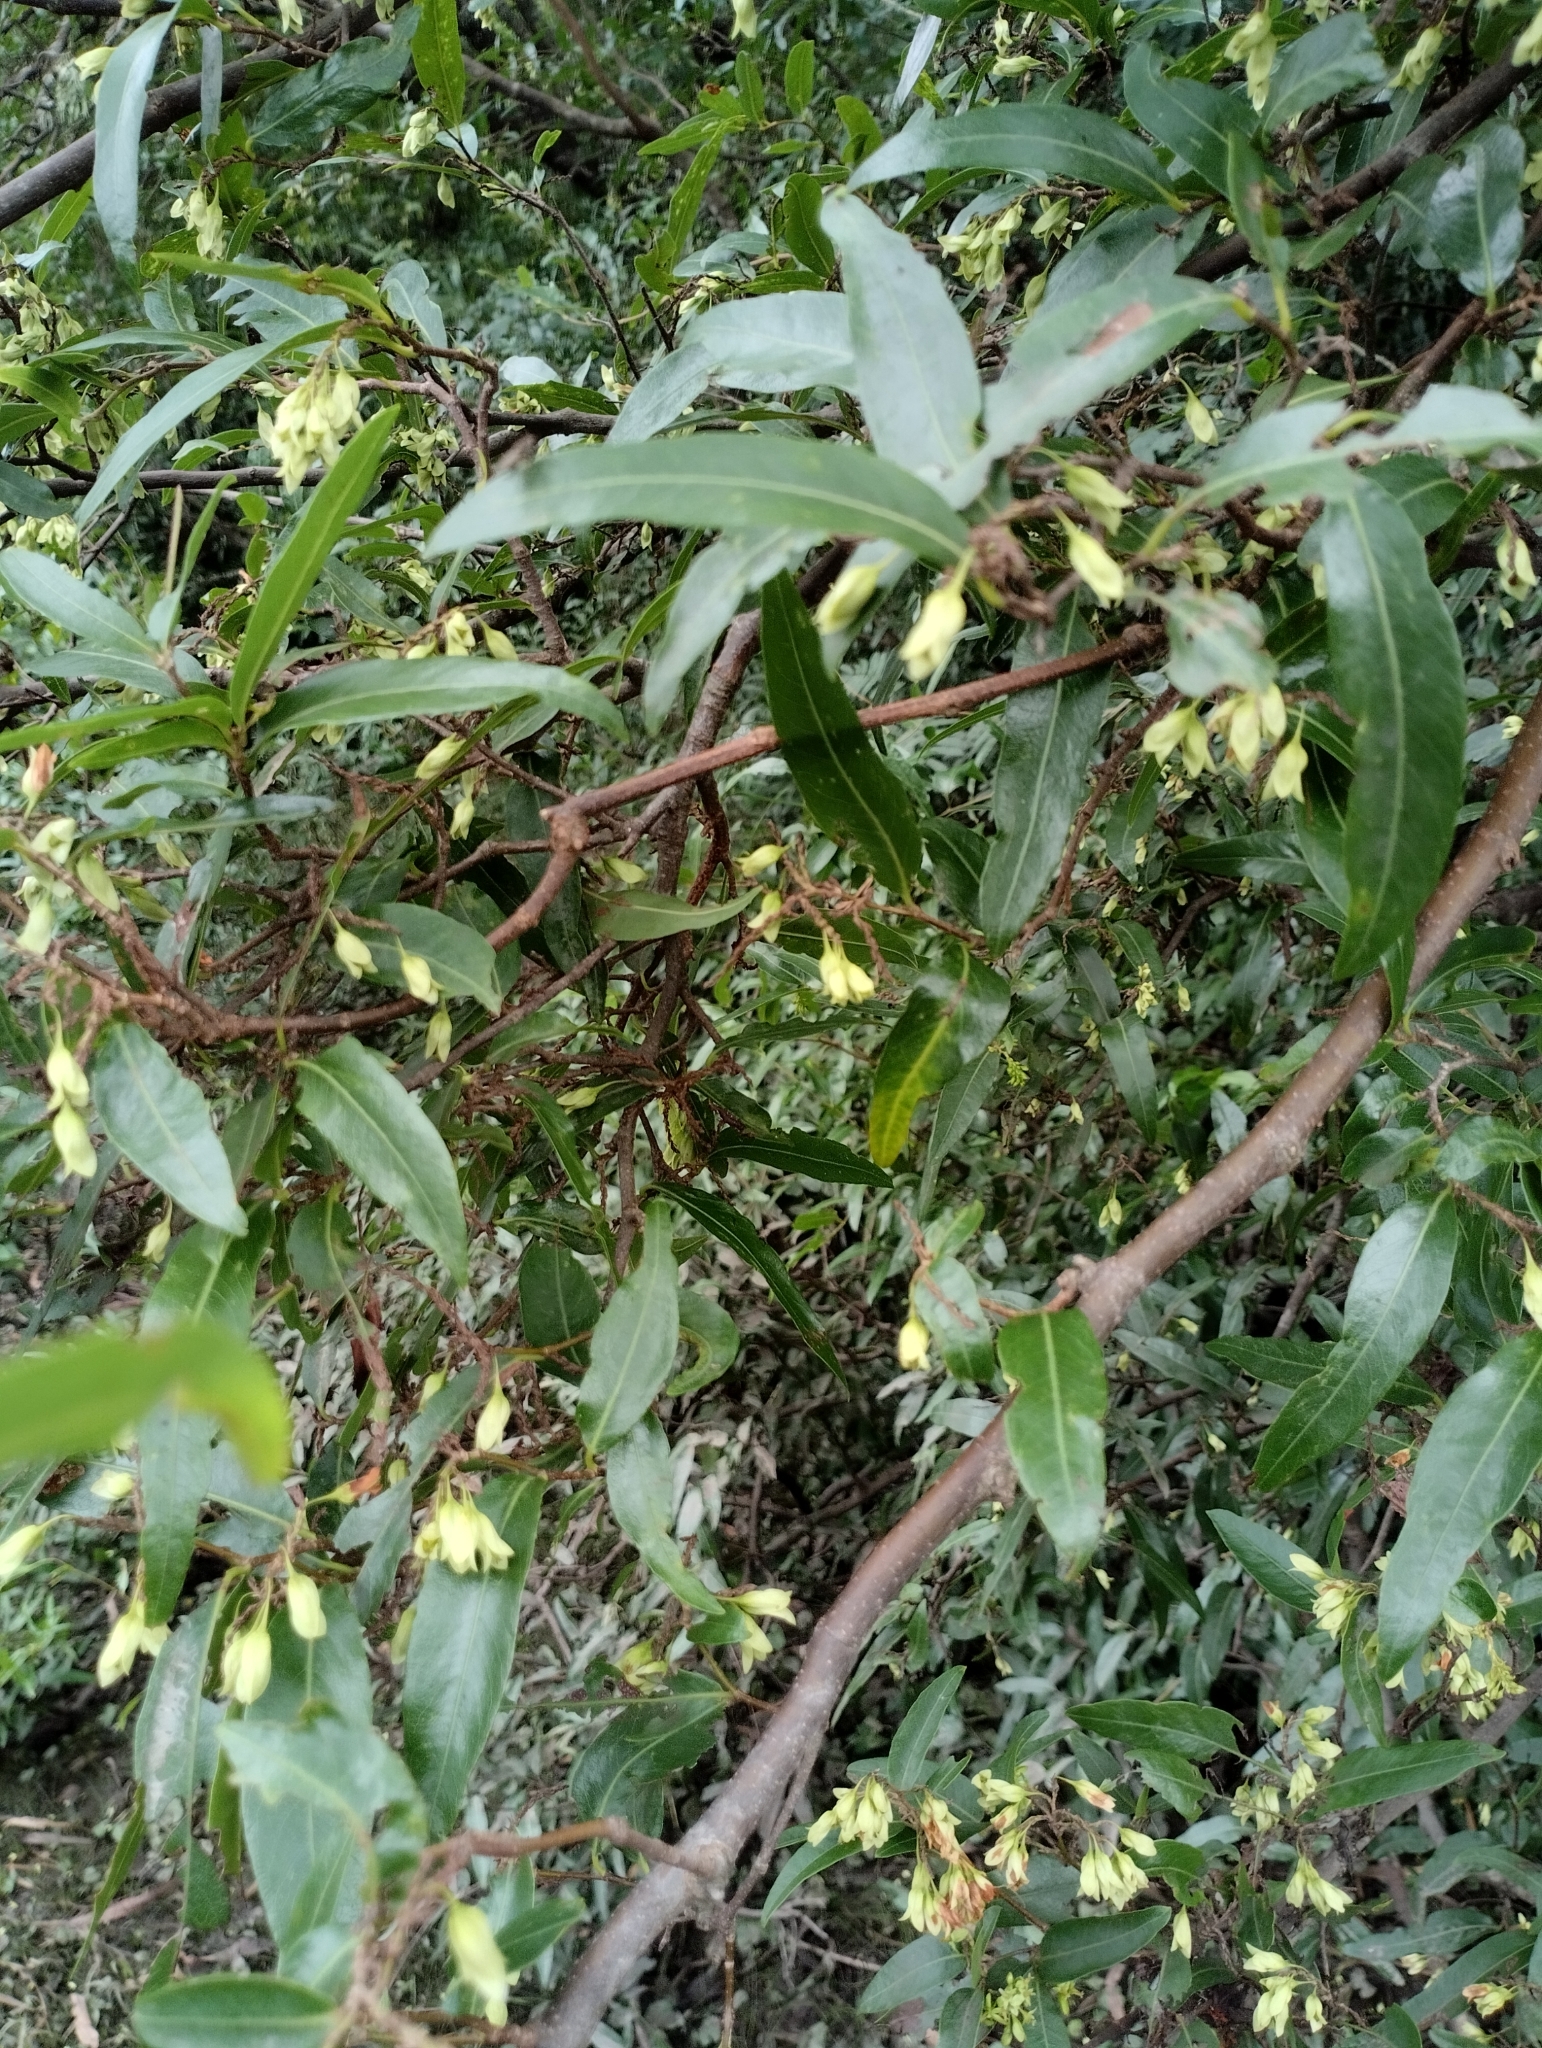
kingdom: Plantae
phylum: Tracheophyta
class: Magnoliopsida
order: Caryophyllales
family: Polygonaceae
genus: Ruprechtia
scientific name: Ruprechtia salicifolia
